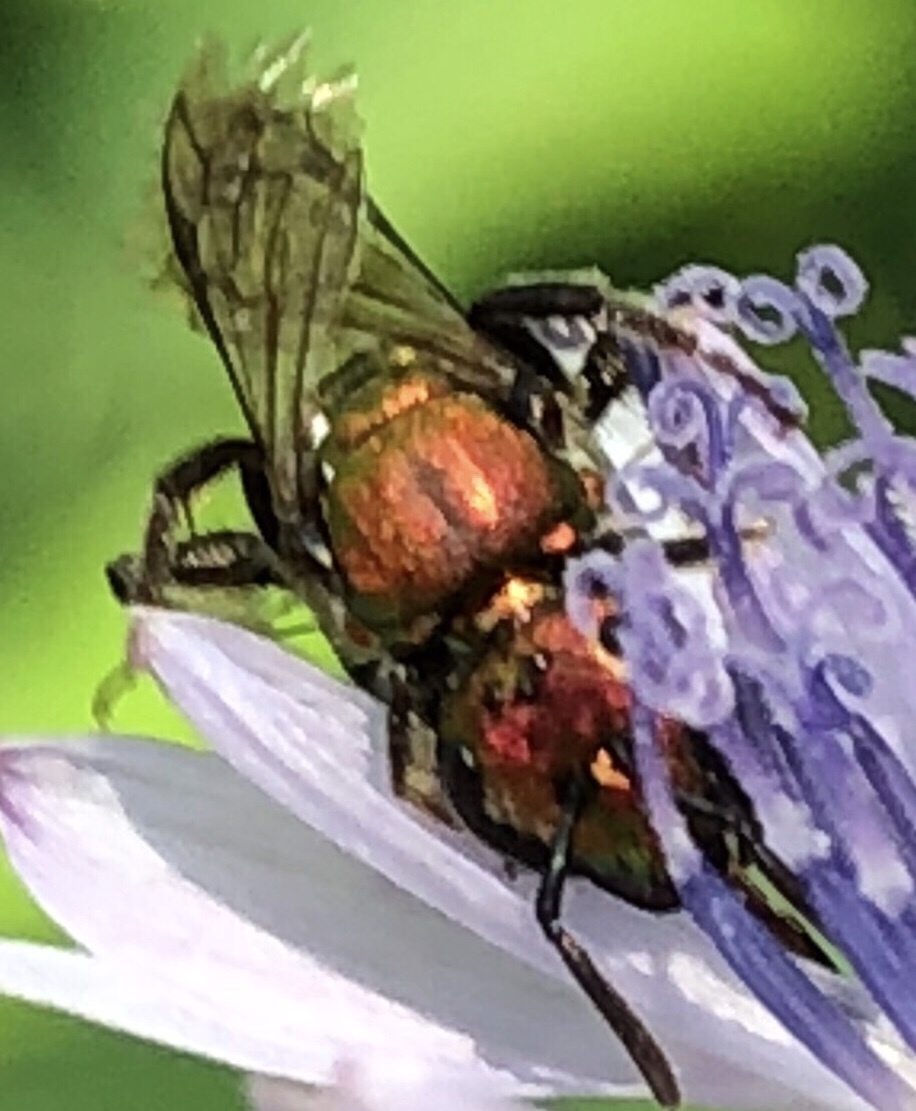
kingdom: Animalia
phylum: Arthropoda
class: Insecta
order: Hymenoptera
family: Halictidae
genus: Augochlora
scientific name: Augochlora pura
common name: Pure green sweat bee
